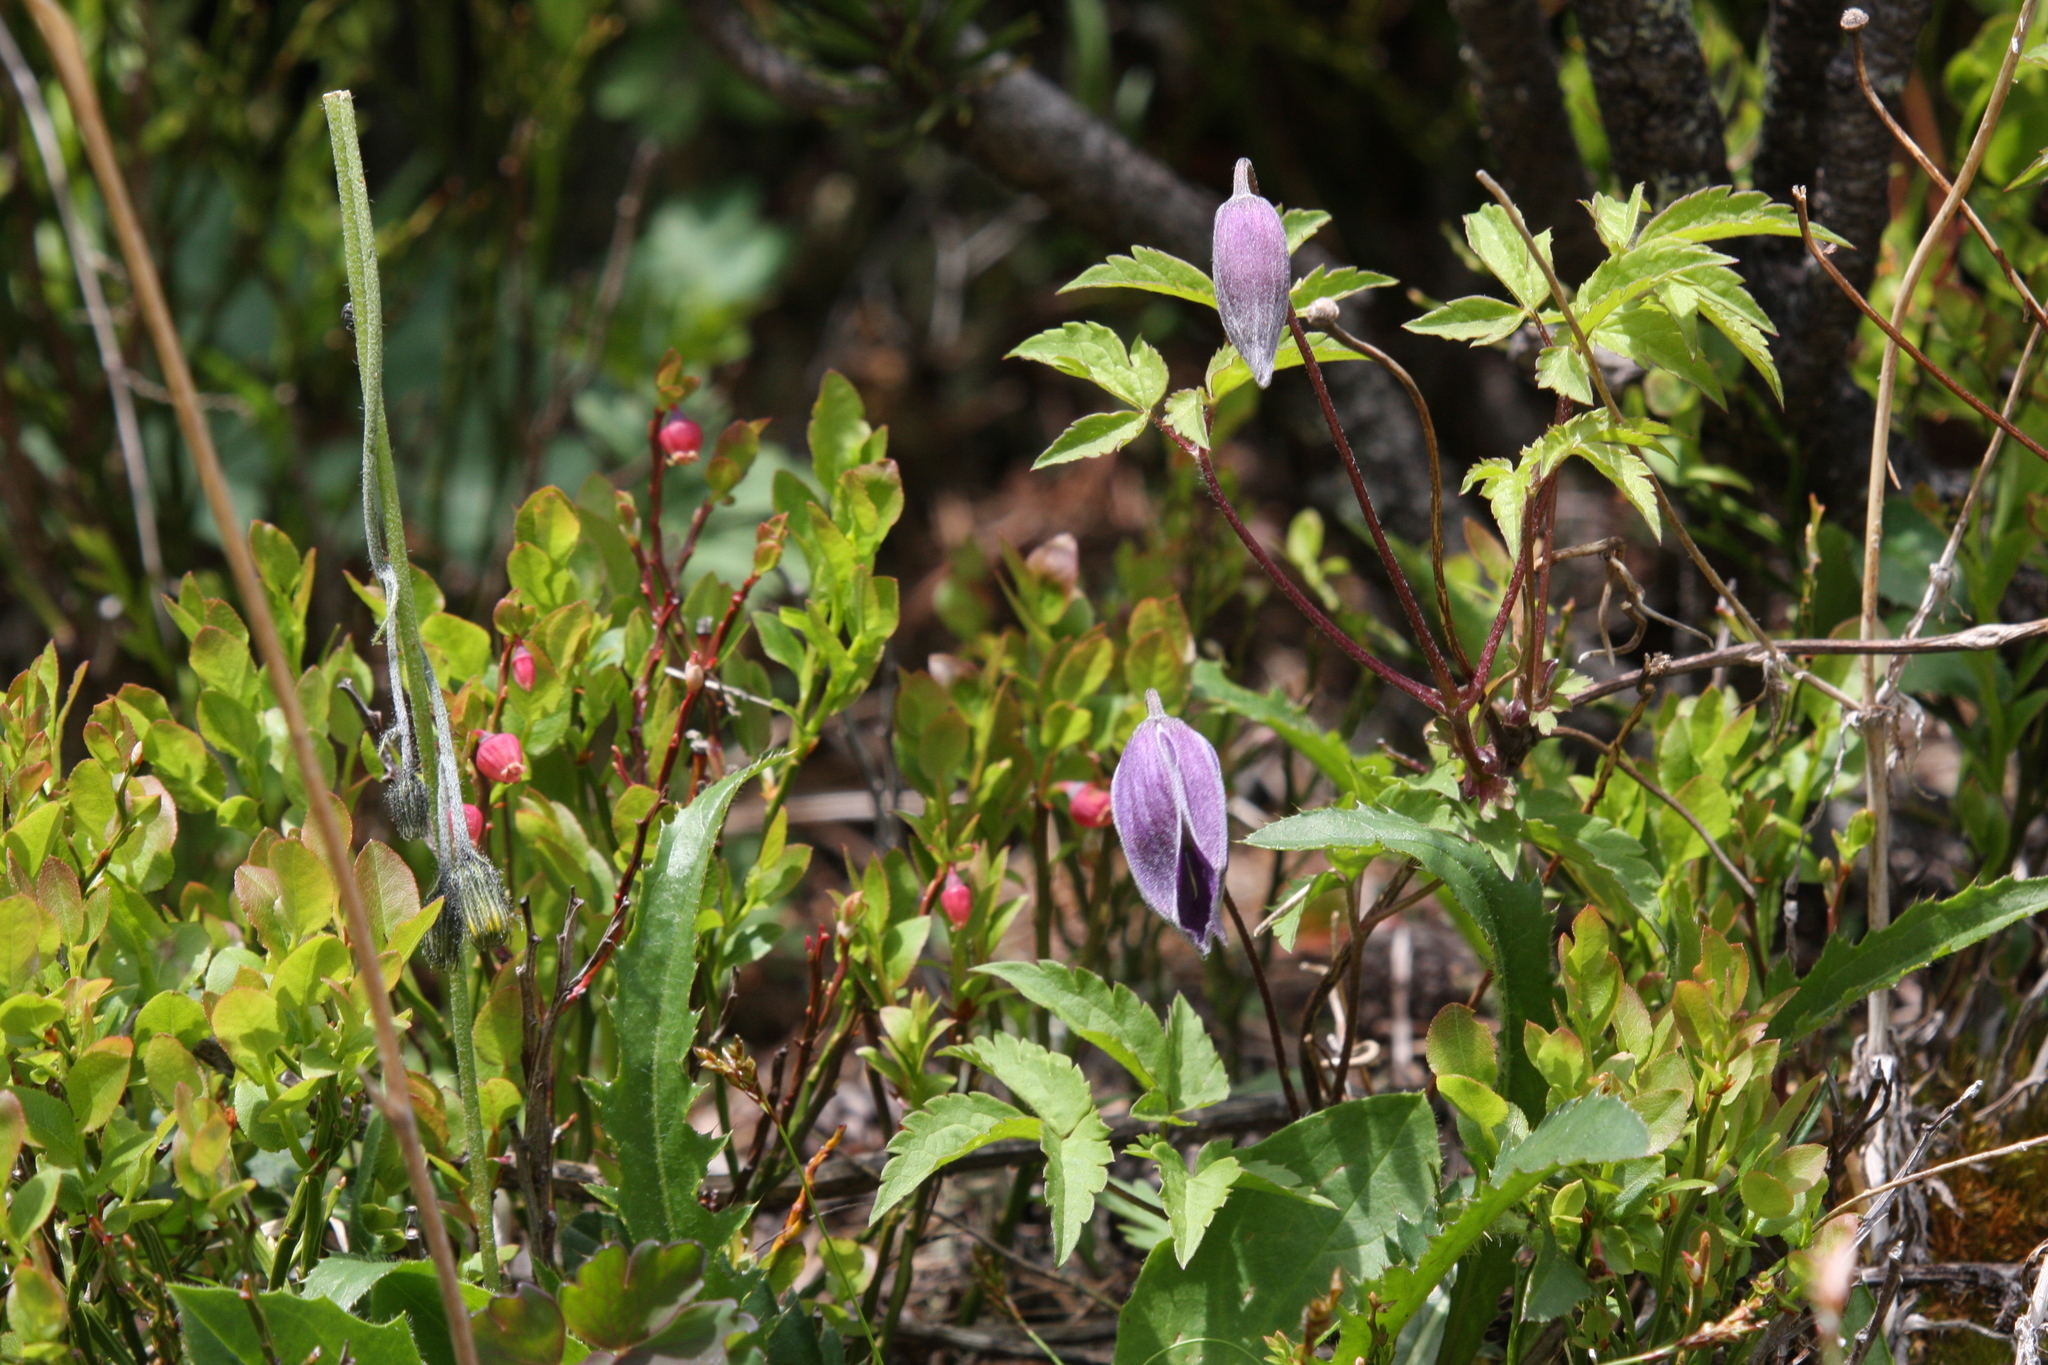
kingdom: Plantae
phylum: Tracheophyta
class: Magnoliopsida
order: Ranunculales
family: Ranunculaceae
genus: Clematis
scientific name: Clematis alpina
